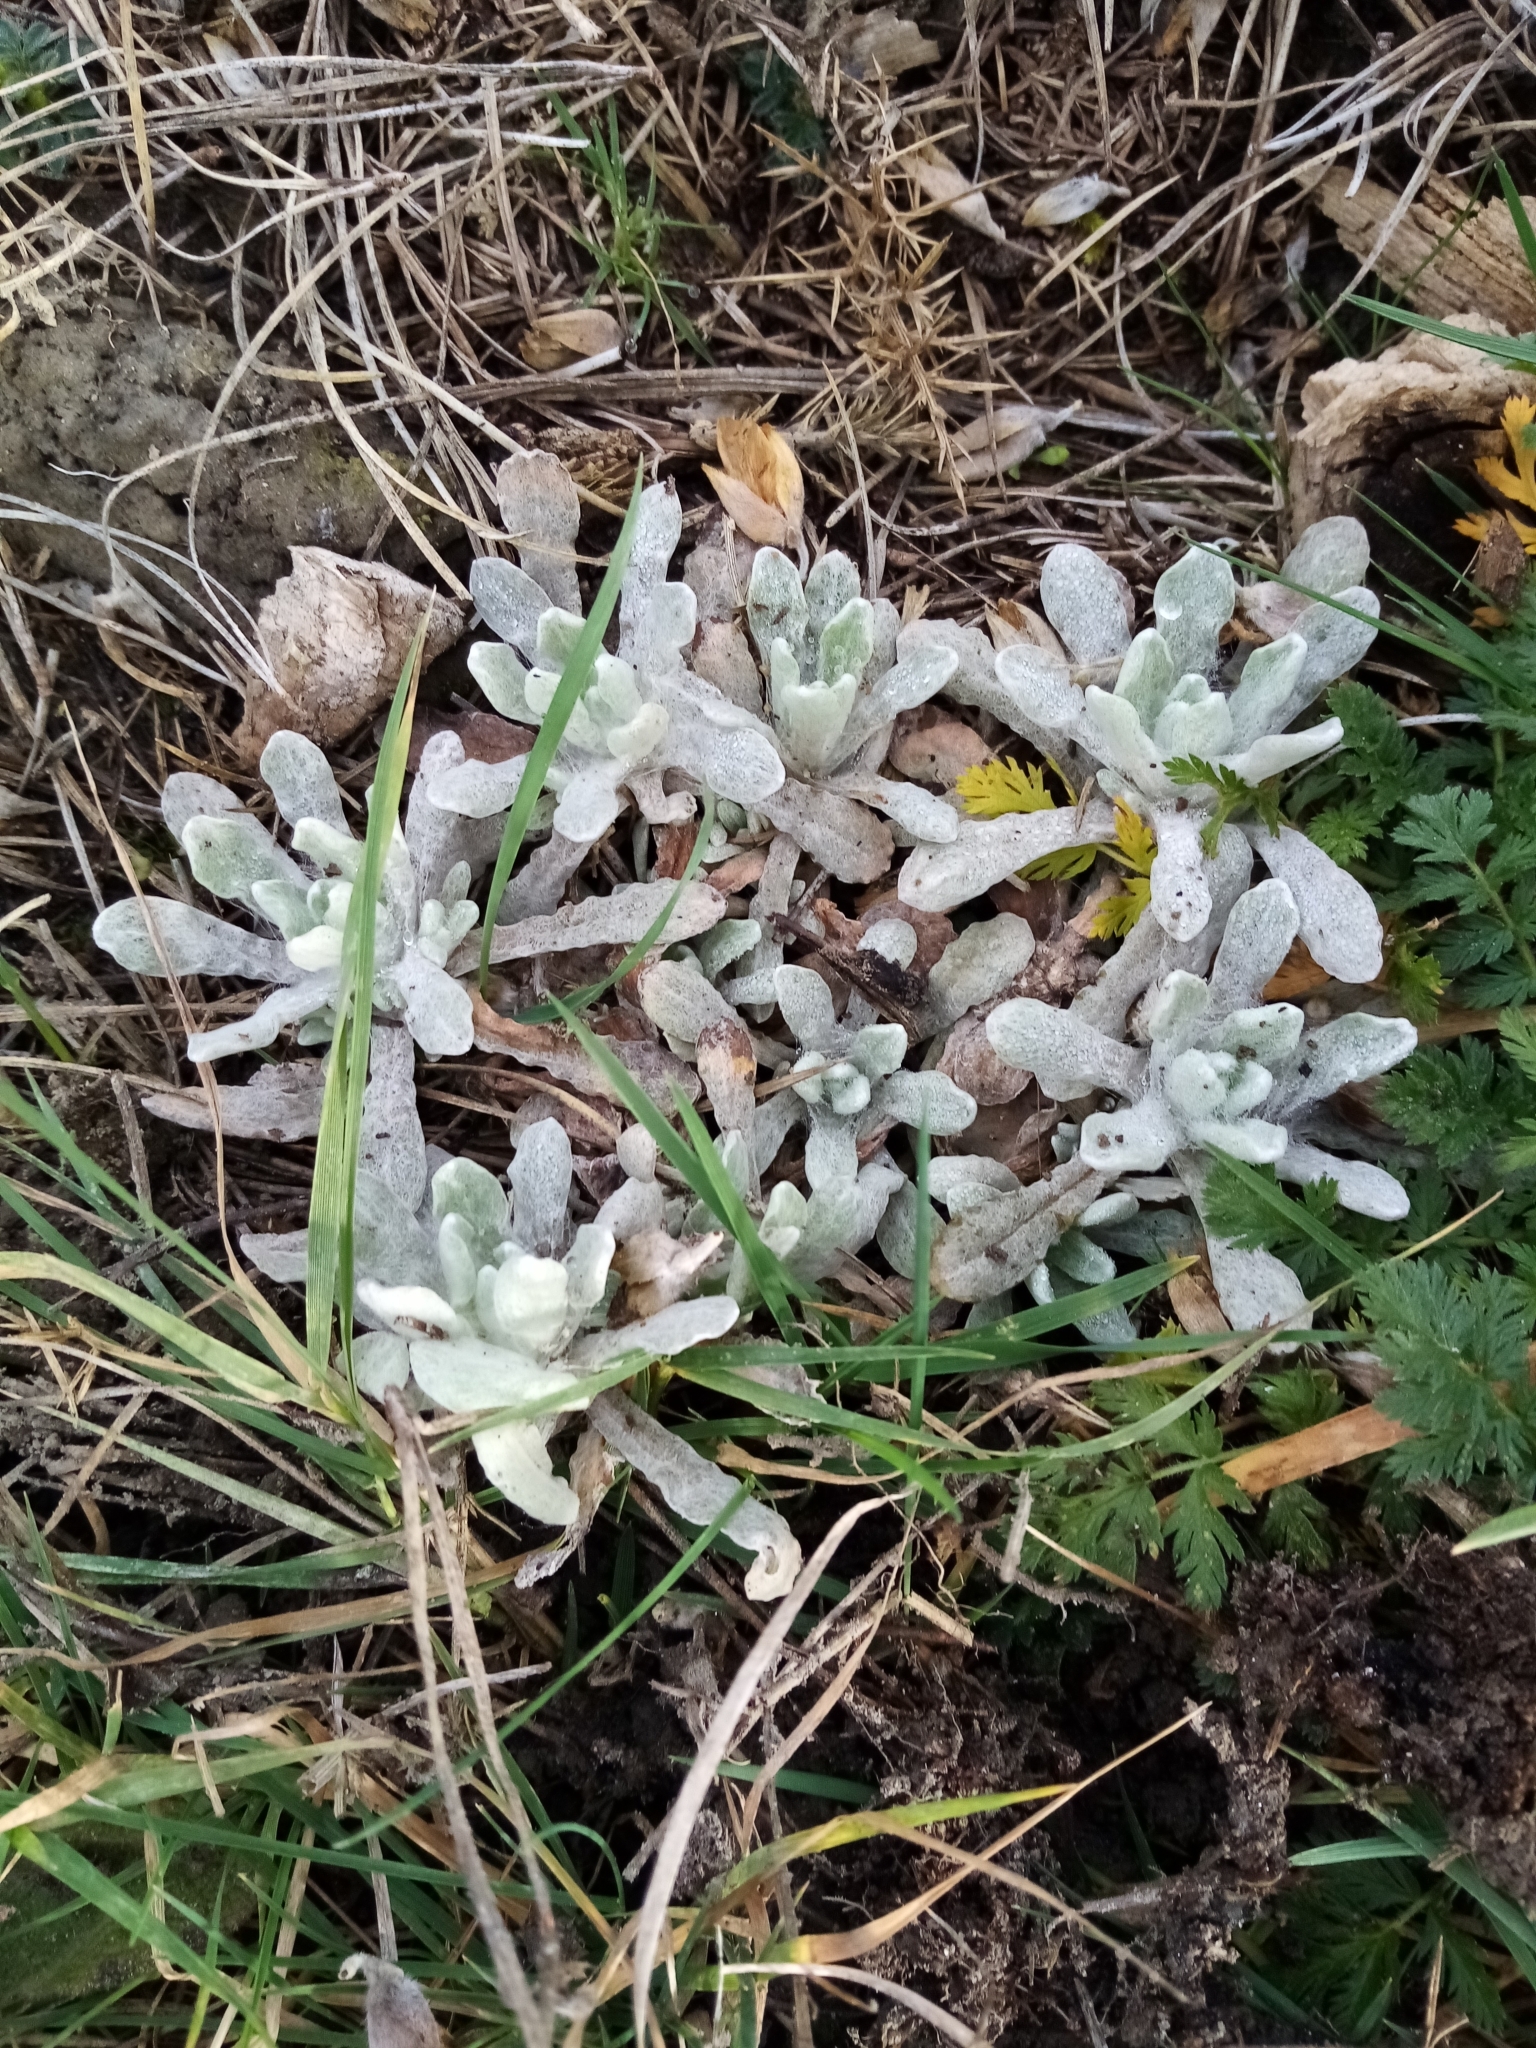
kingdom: Plantae
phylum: Tracheophyta
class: Magnoliopsida
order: Asterales
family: Asteraceae
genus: Helichrysum
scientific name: Helichrysum luteoalbum
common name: Daisy
